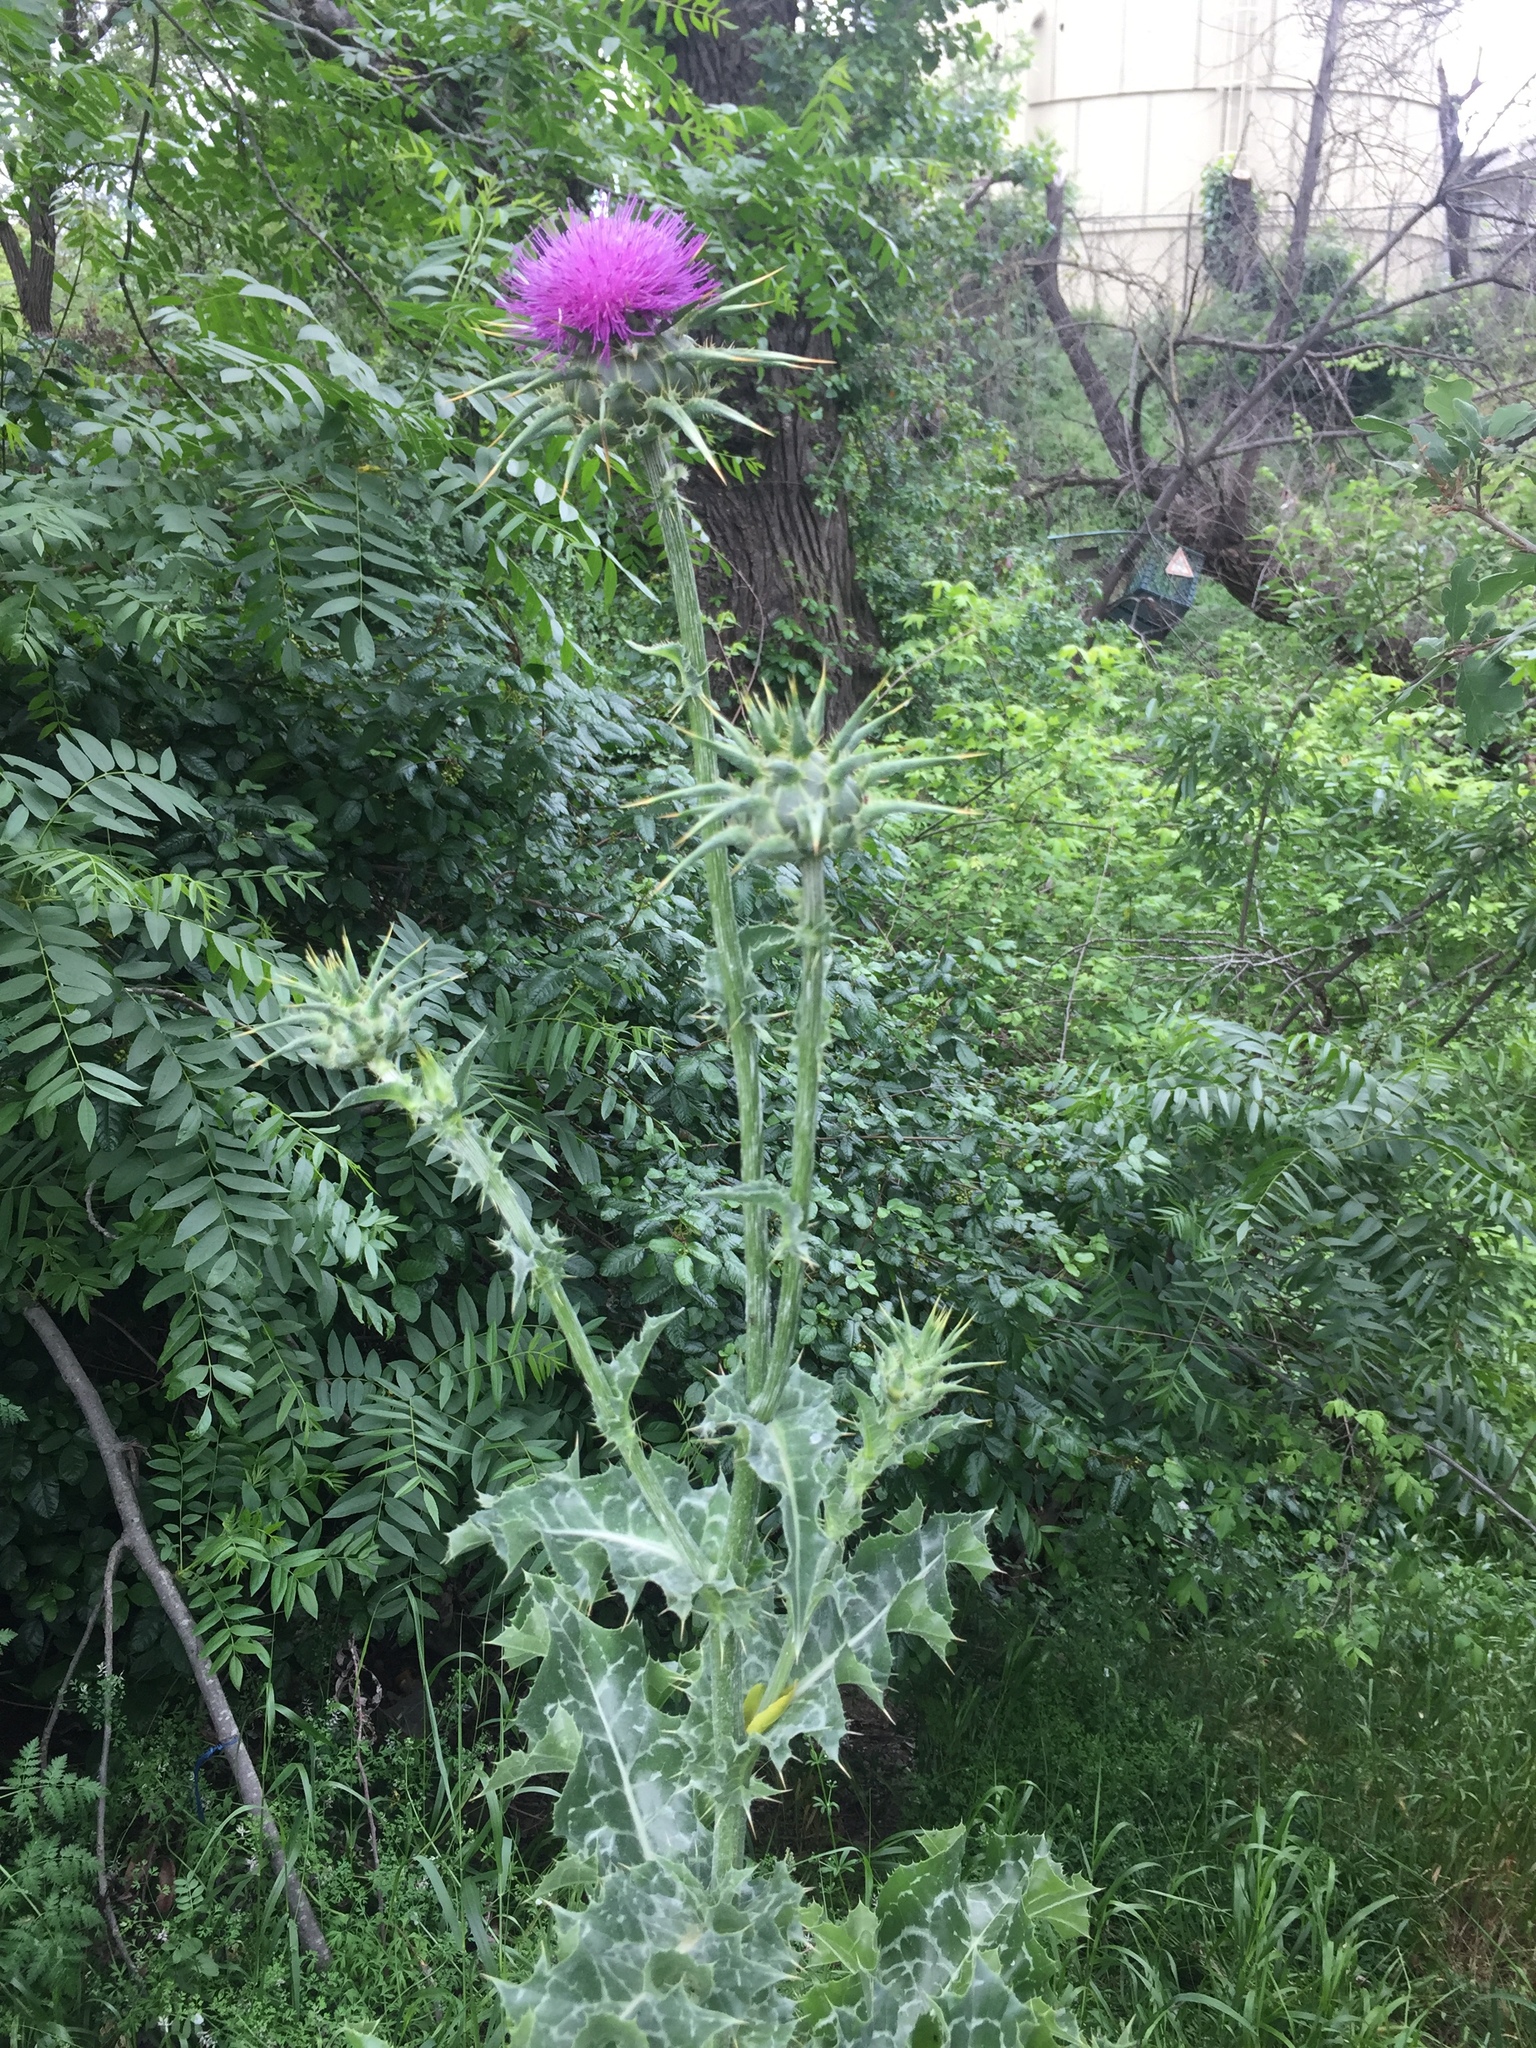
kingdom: Plantae
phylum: Tracheophyta
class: Magnoliopsida
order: Asterales
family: Asteraceae
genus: Silybum
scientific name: Silybum marianum
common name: Milk thistle
